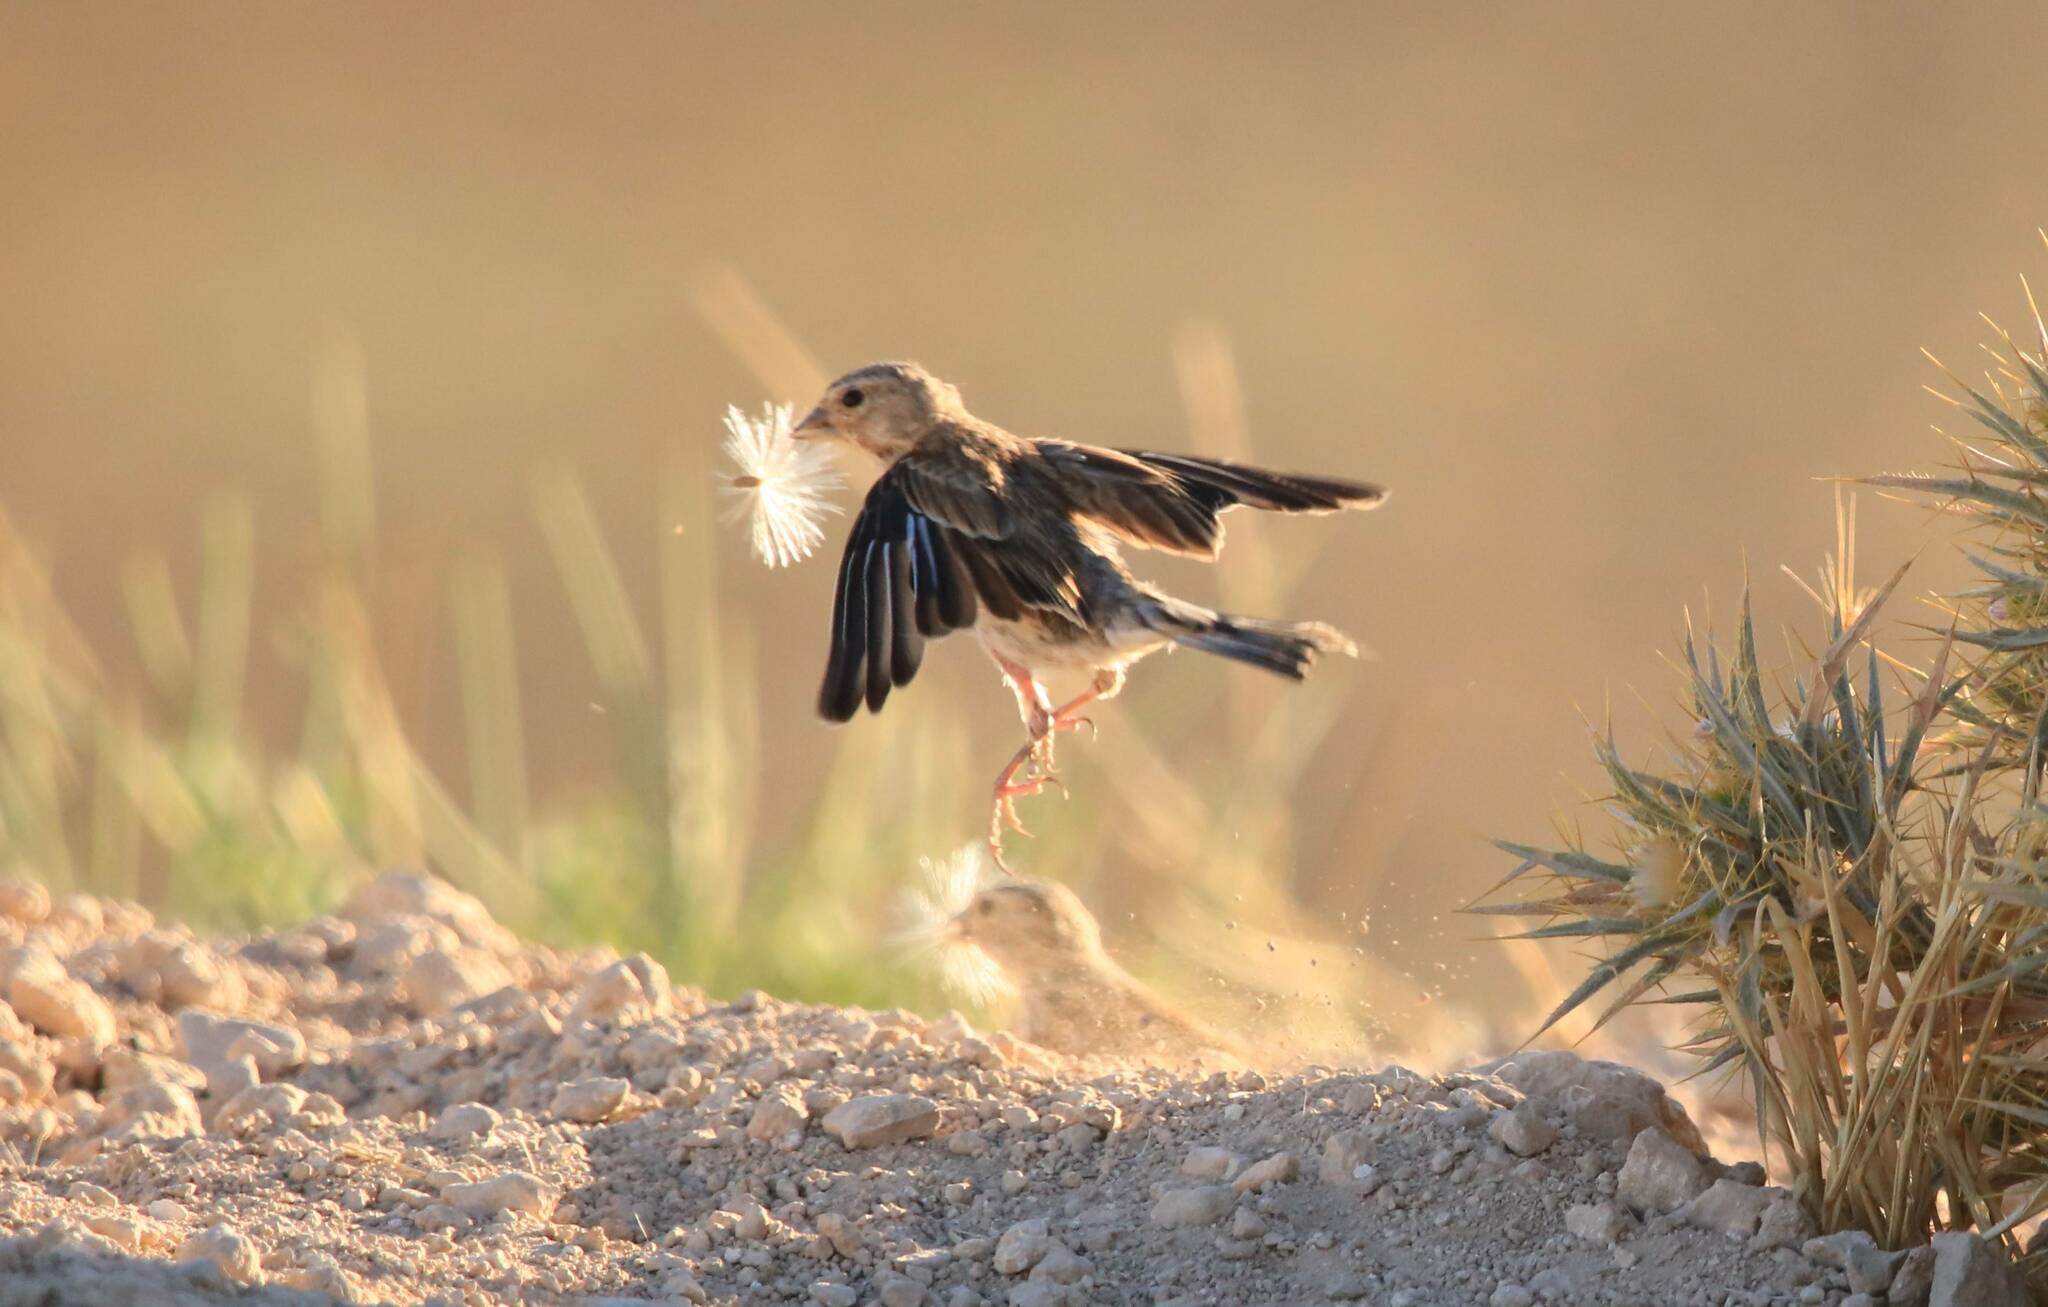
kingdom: Animalia
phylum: Chordata
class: Aves
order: Passeriformes
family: Fringillidae
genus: Linaria
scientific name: Linaria cannabina
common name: Common linnet
